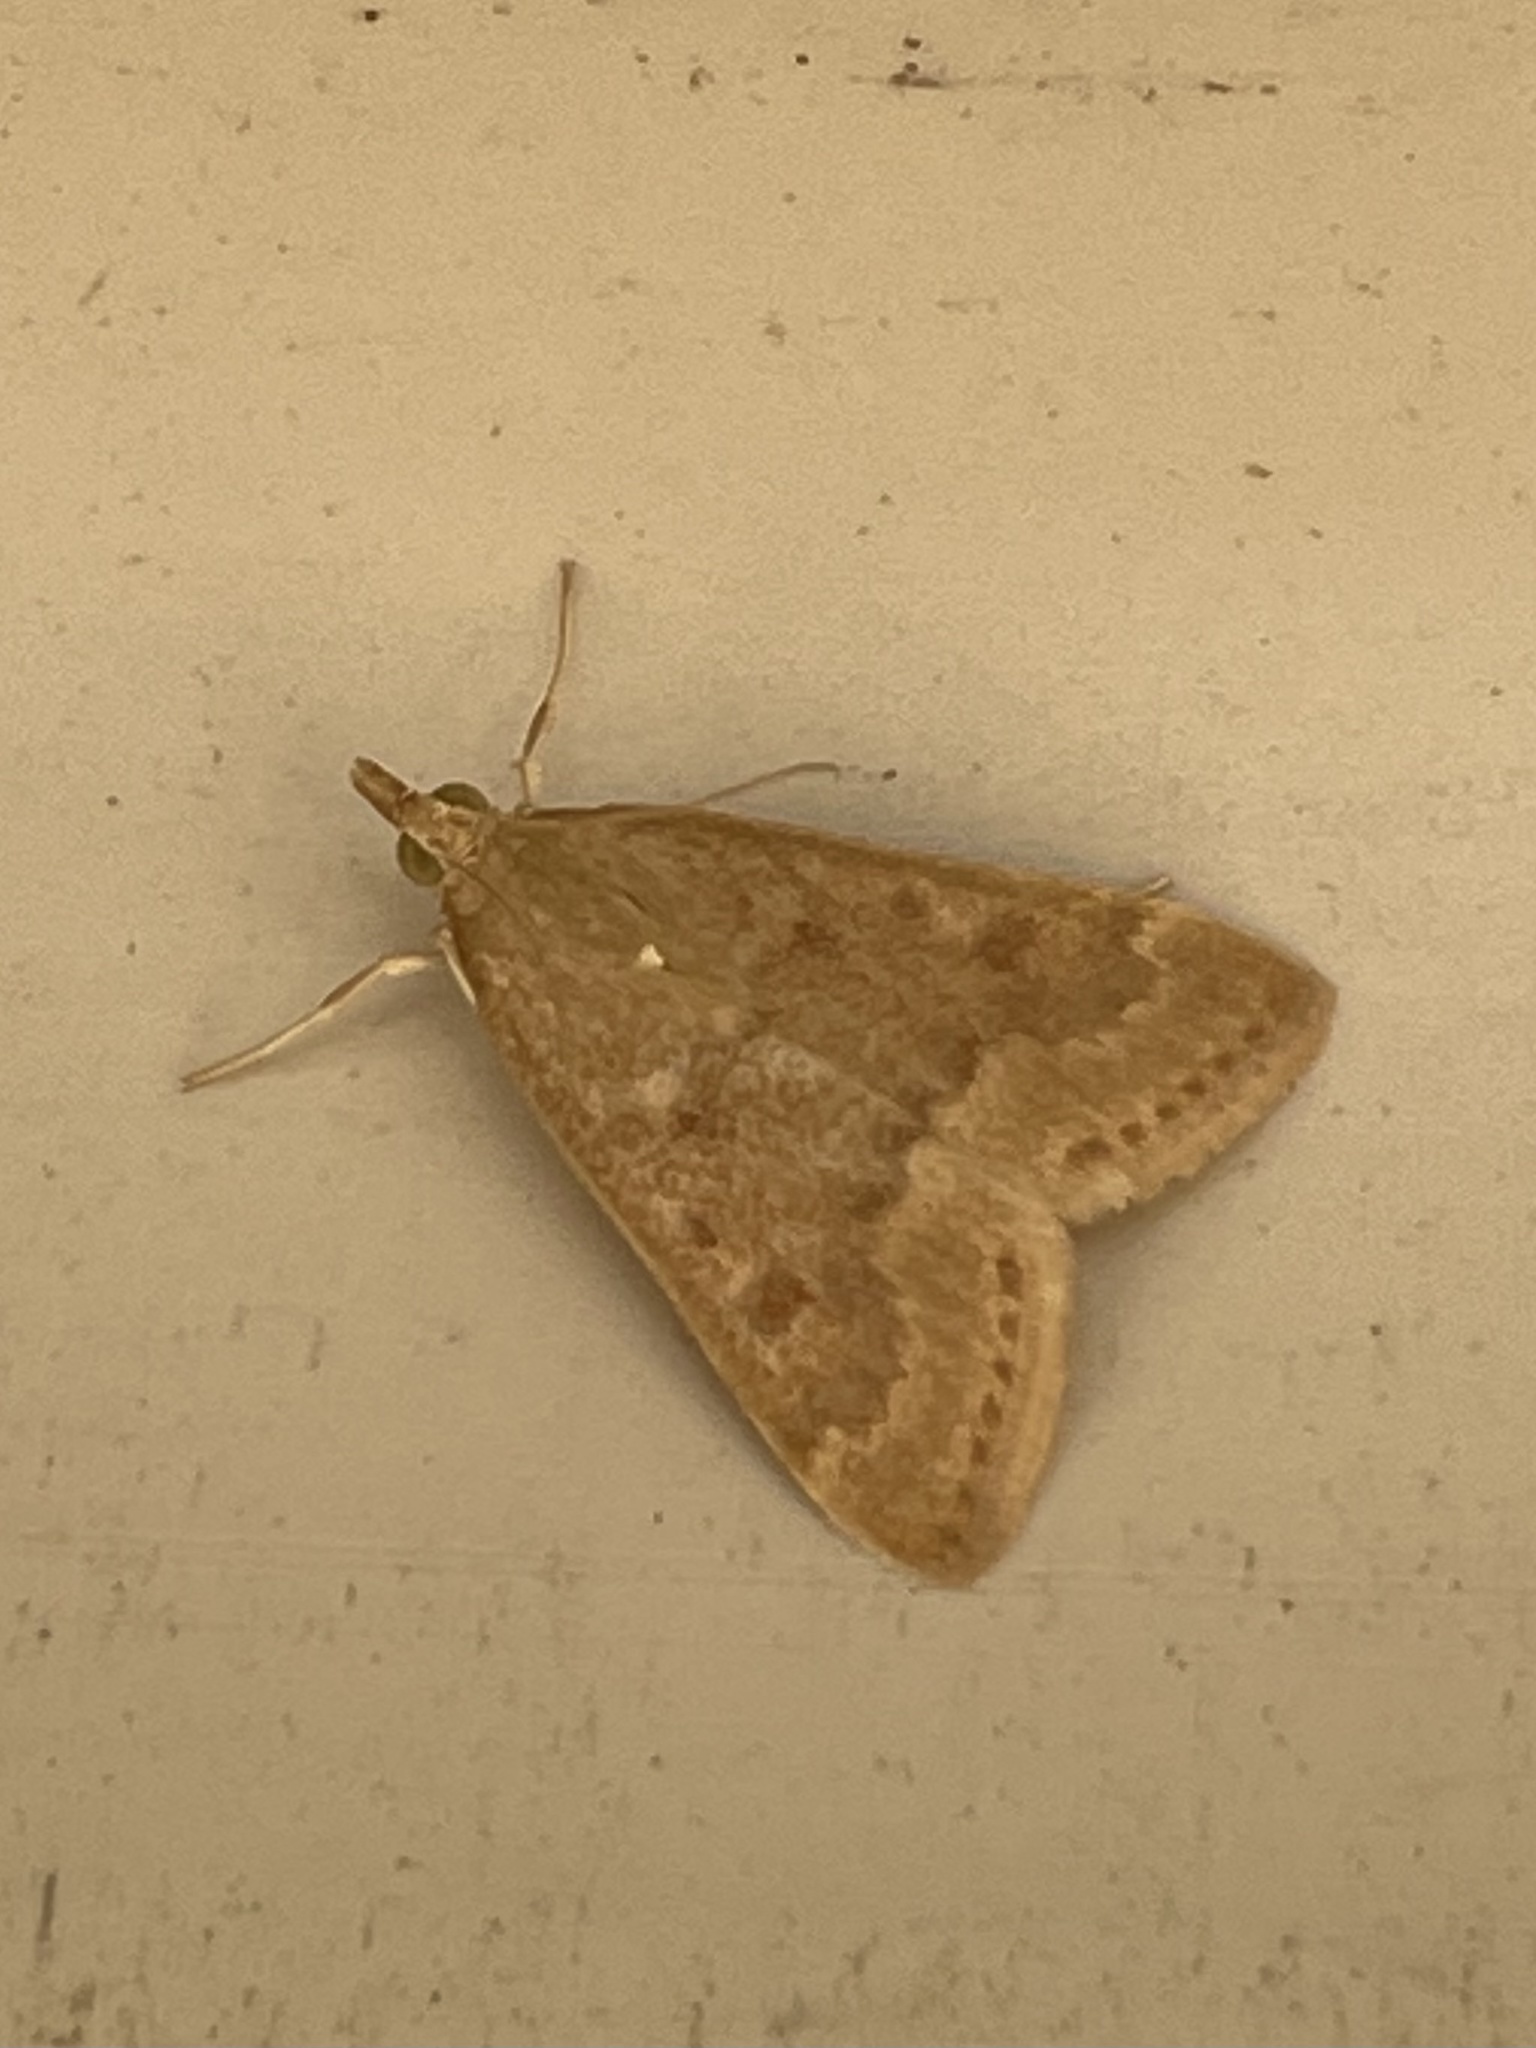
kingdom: Animalia
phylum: Arthropoda
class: Insecta
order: Lepidoptera
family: Crambidae
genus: Achyra
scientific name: Achyra rantalis
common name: Garden webworm
